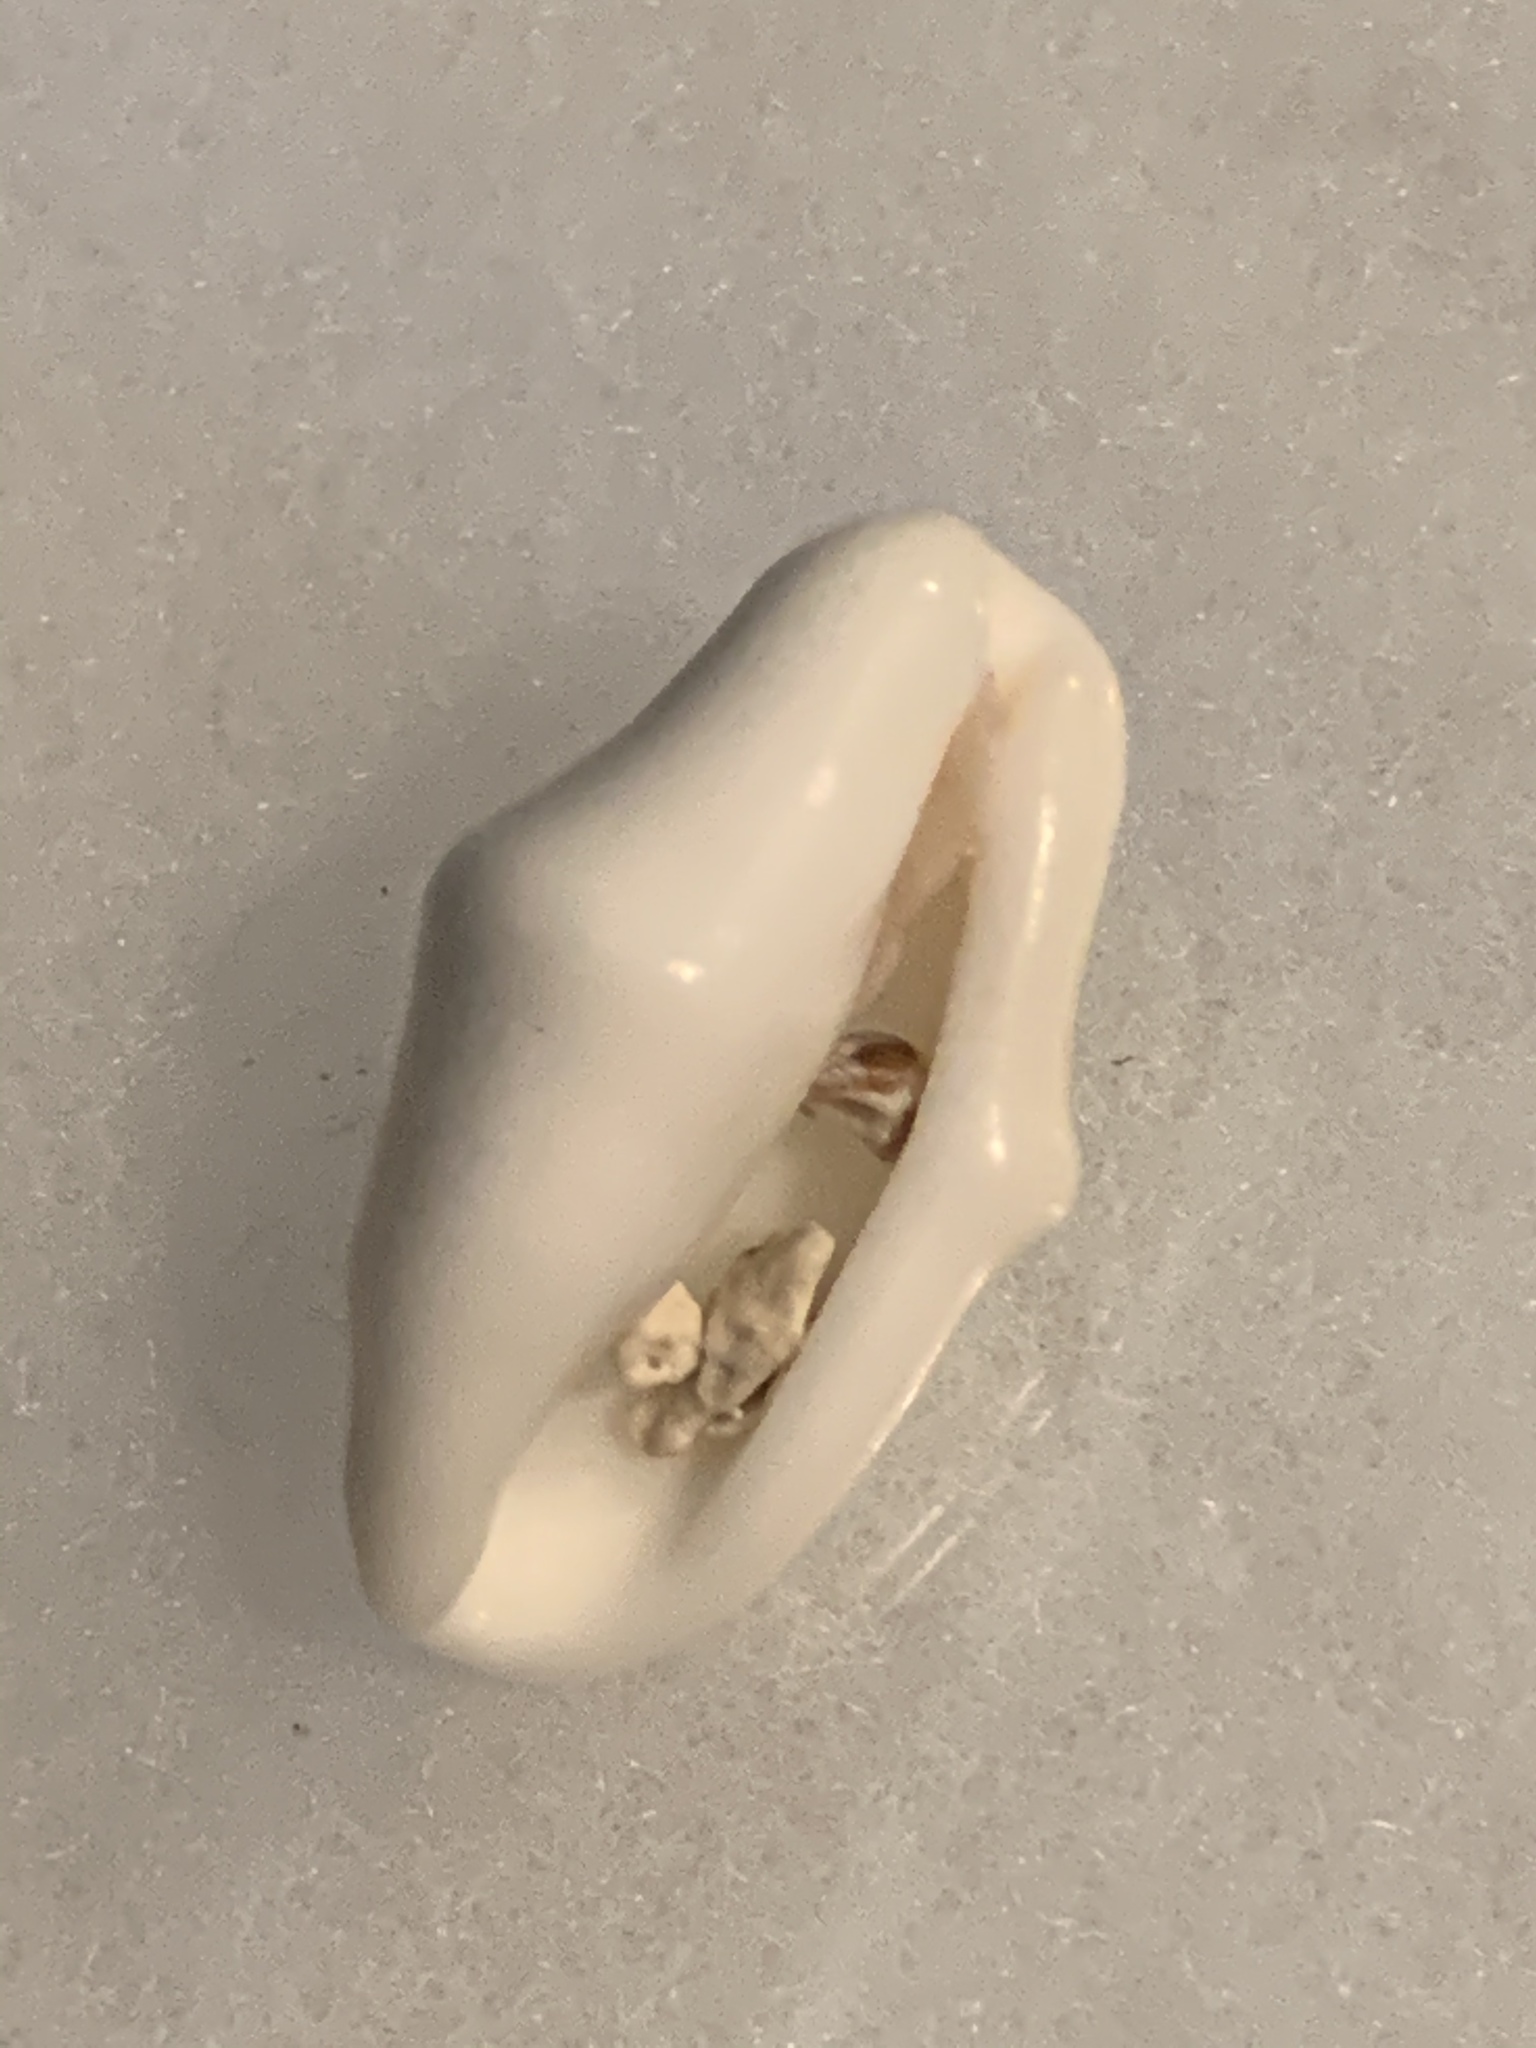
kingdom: Animalia
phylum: Mollusca
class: Gastropoda
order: Littorinimorpha
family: Ovulidae
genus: Cyphoma
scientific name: Cyphoma gibbosum
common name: Flamingo tongue
